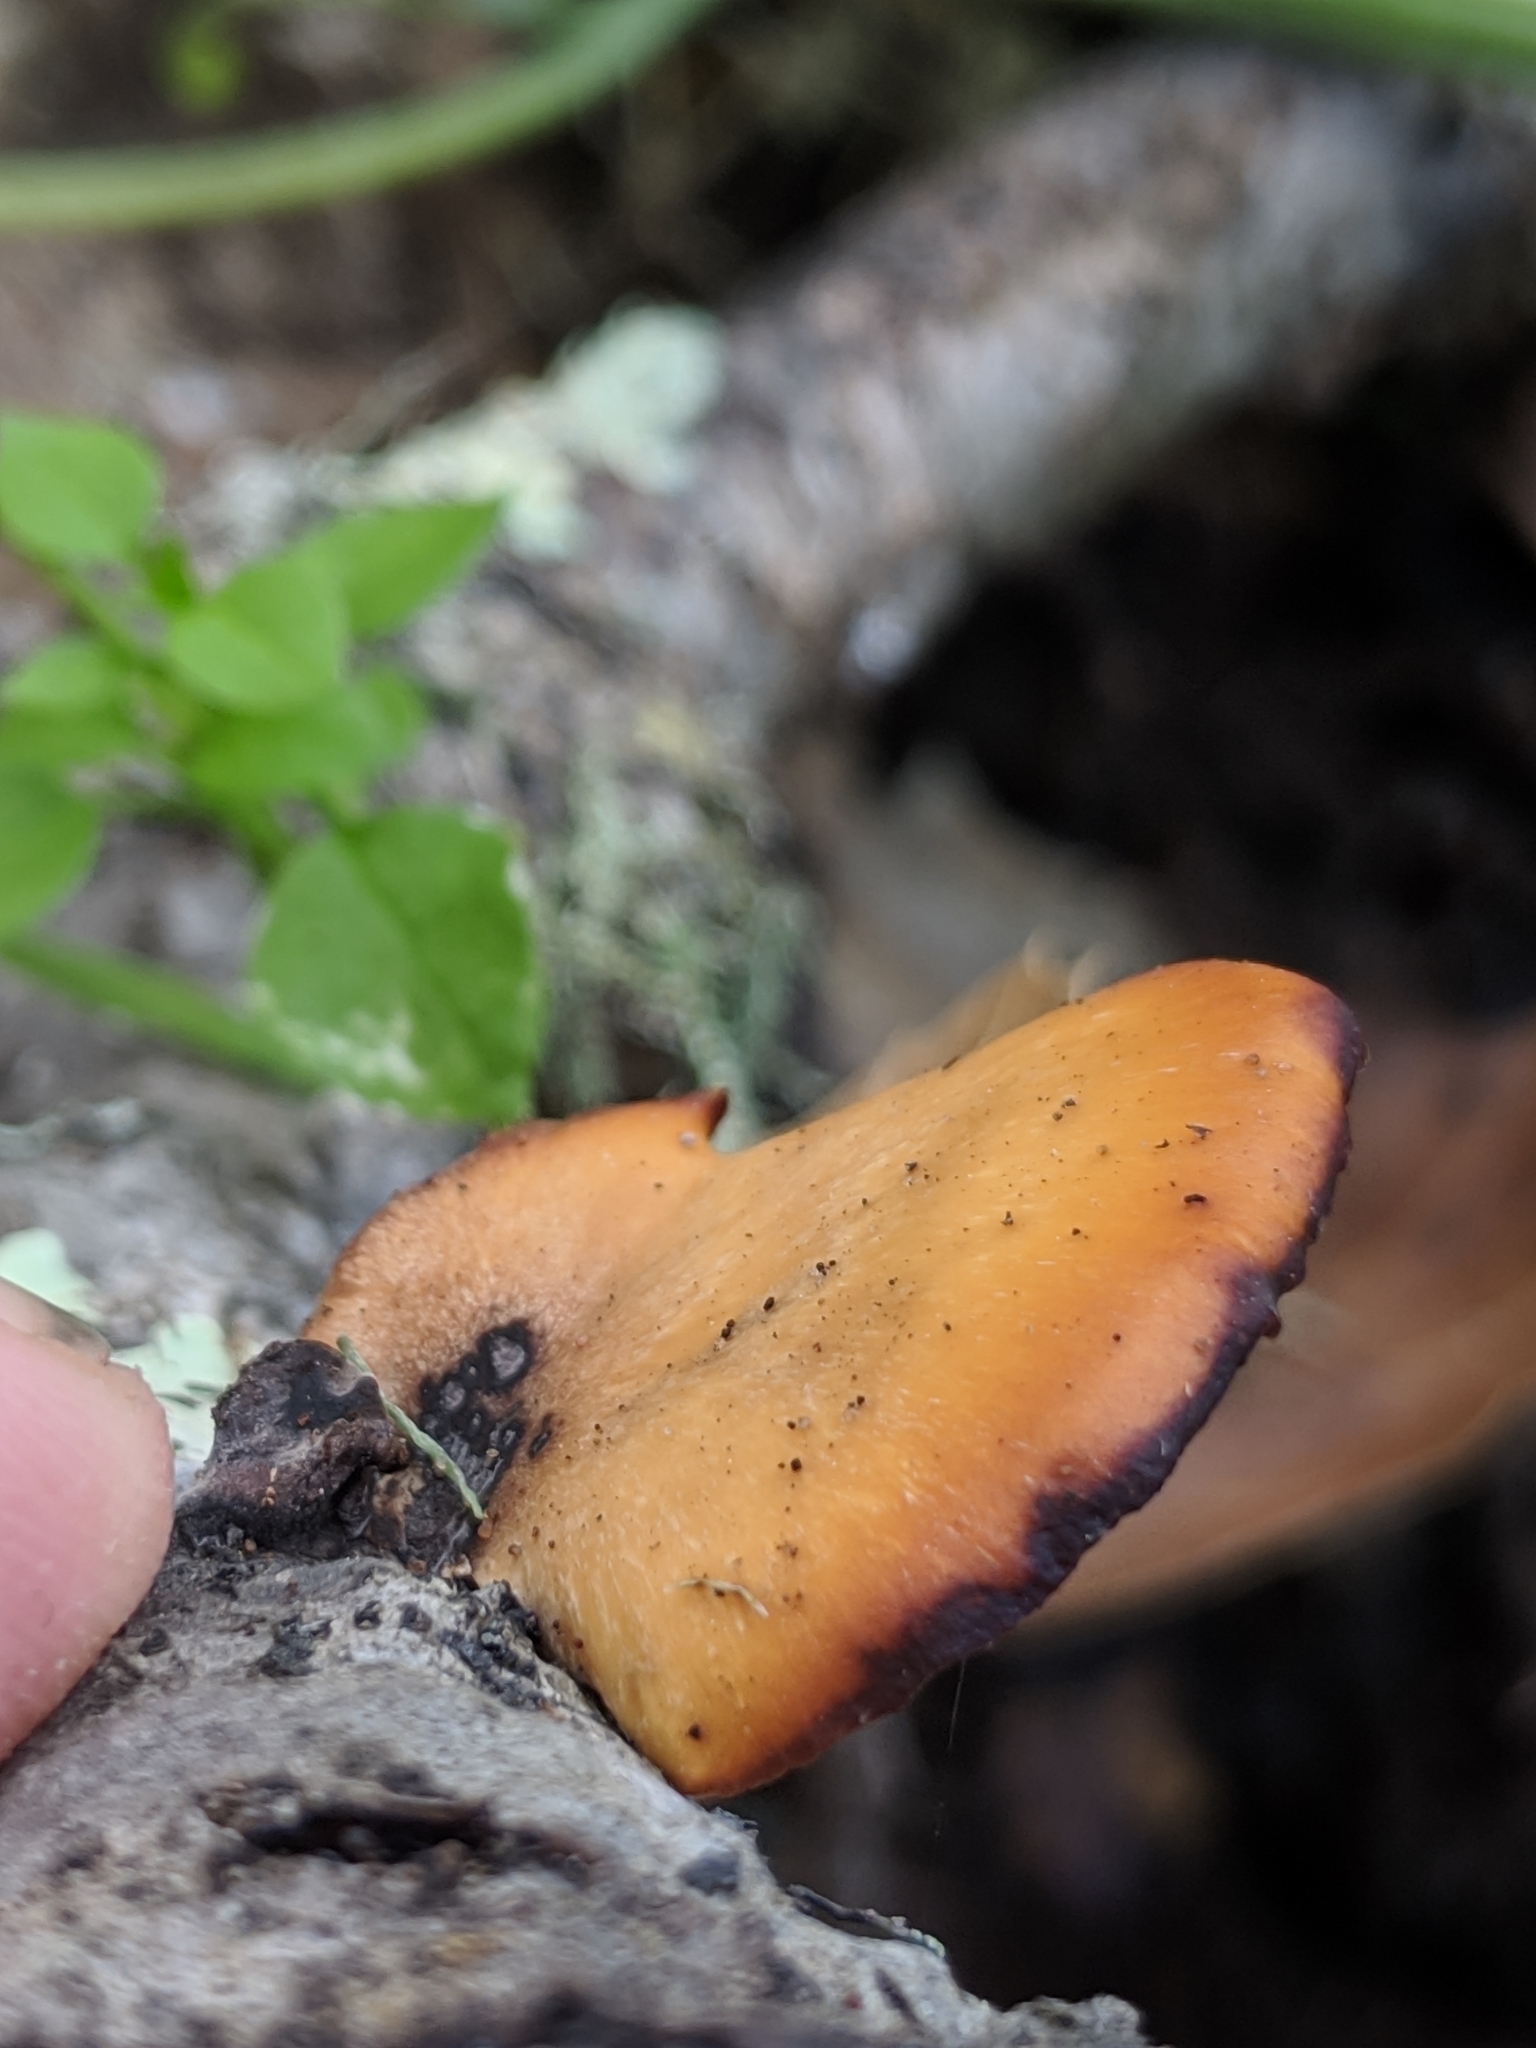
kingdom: Fungi
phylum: Basidiomycota
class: Agaricomycetes
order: Polyporales
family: Polyporaceae
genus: Cerioporus
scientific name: Cerioporus leptocephalus
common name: Blackfoot polypore
